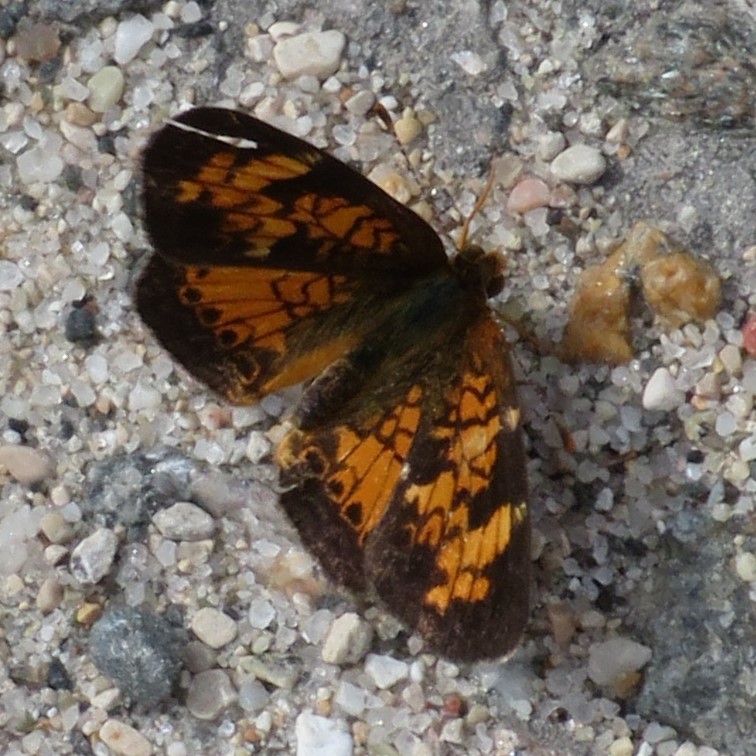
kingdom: Animalia
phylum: Arthropoda
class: Insecta
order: Lepidoptera
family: Nymphalidae
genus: Phyciodes
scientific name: Phyciodes tharos
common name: Pearl crescent
